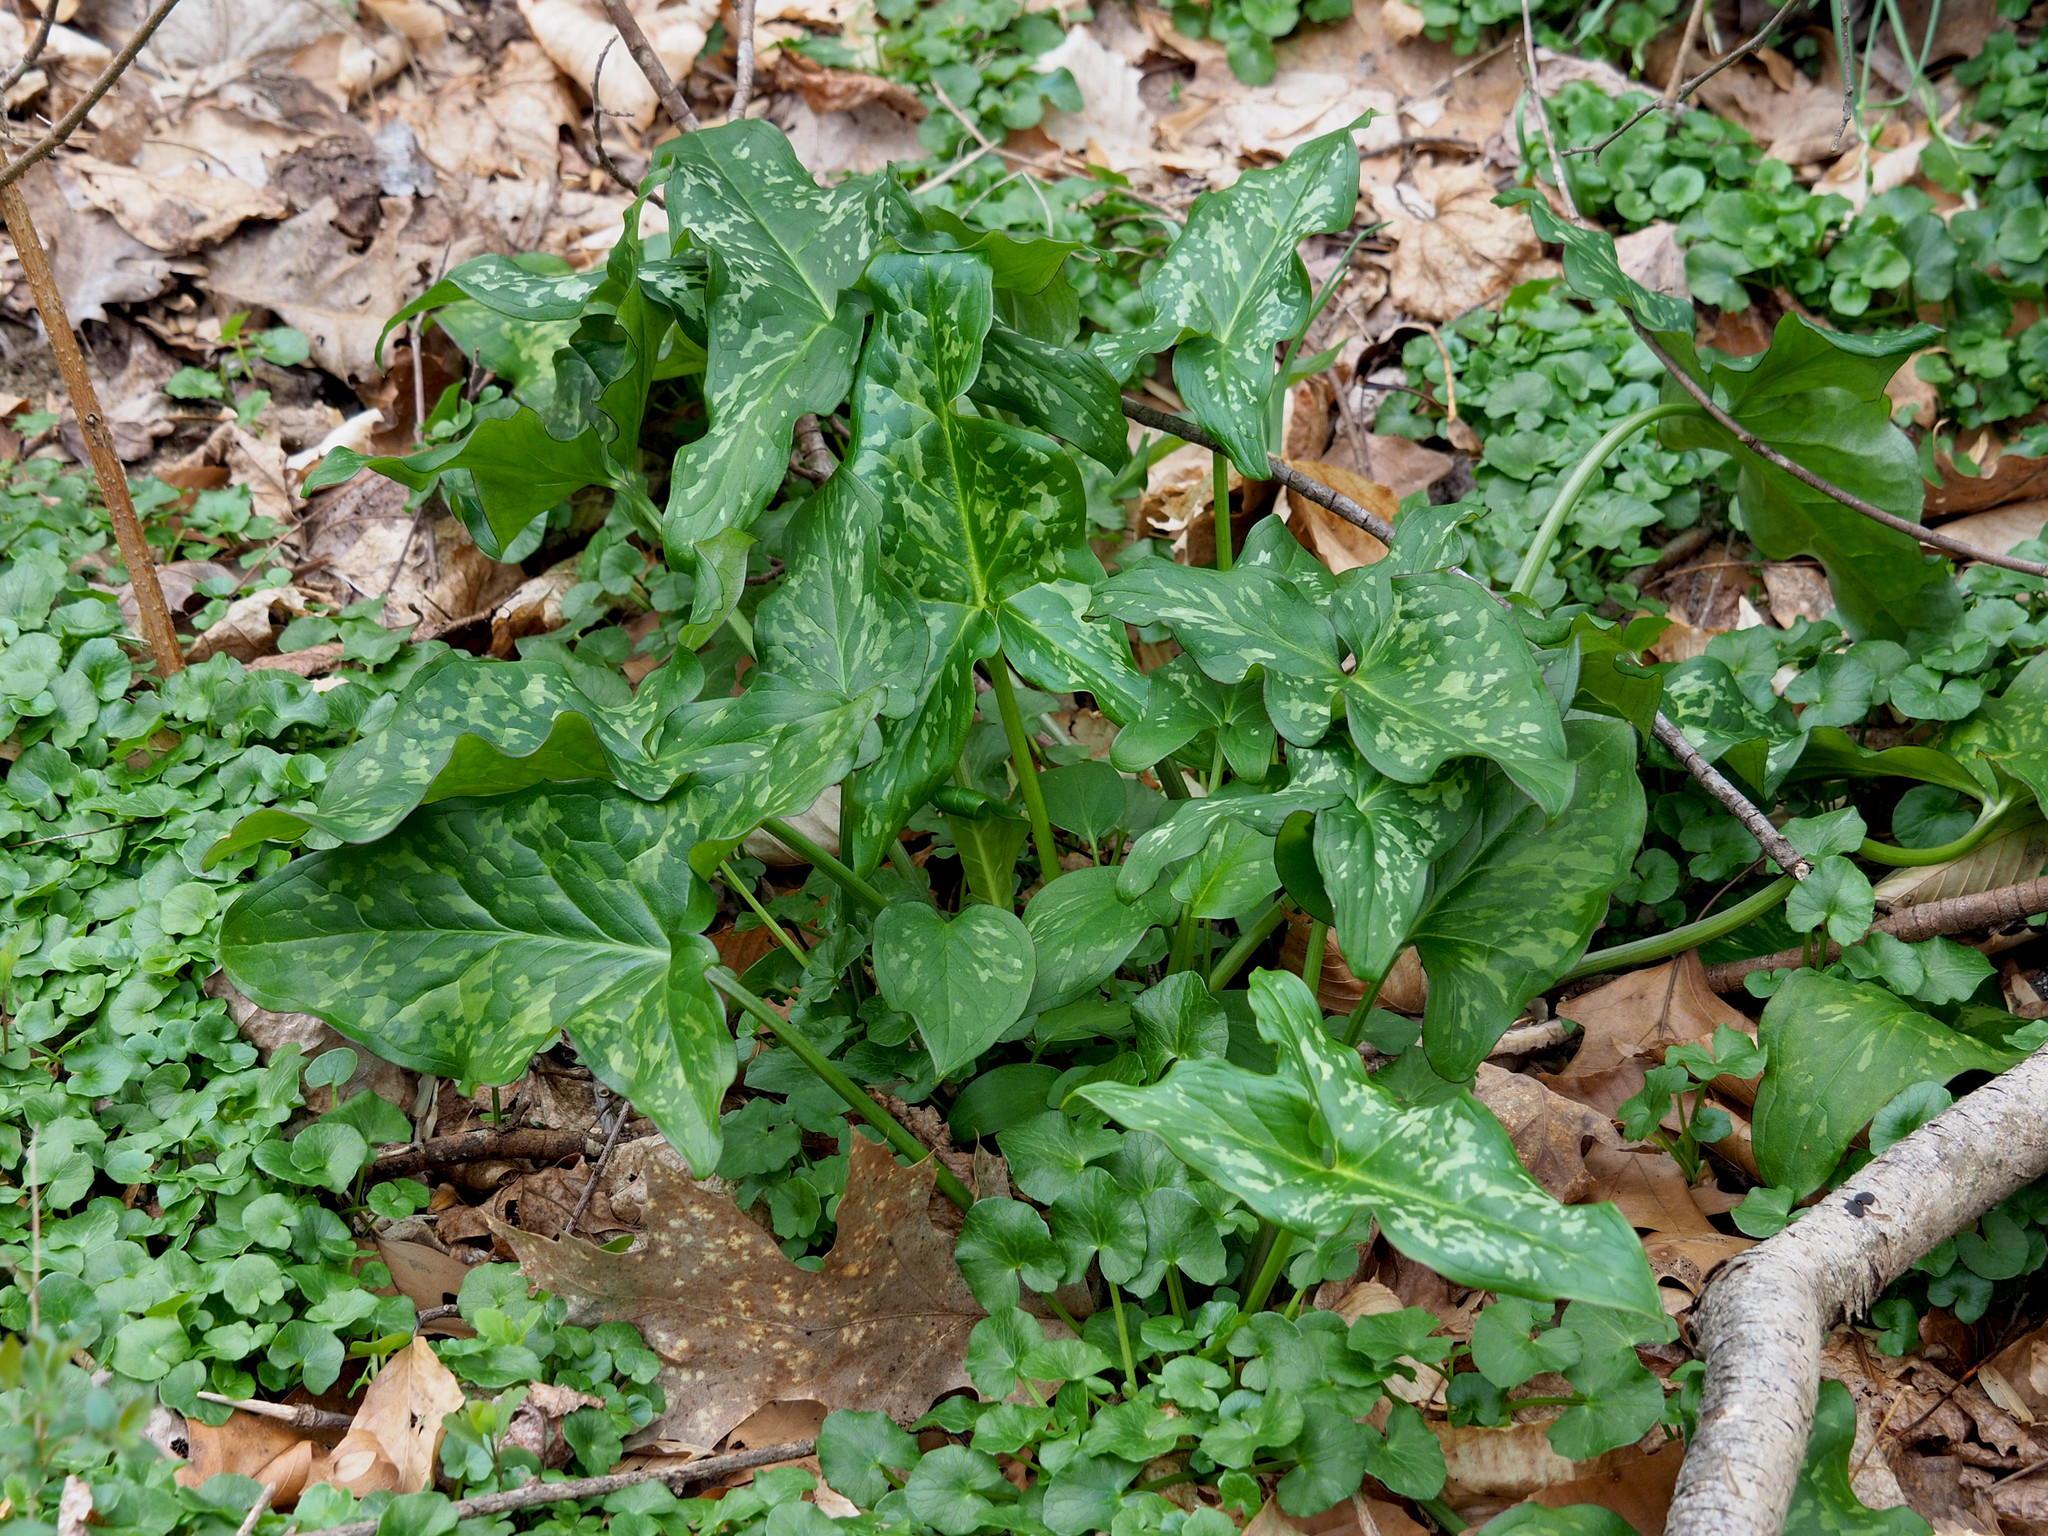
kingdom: Plantae
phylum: Tracheophyta
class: Liliopsida
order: Alismatales
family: Araceae
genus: Arum
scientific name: Arum italicum
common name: Italian lords-and-ladies
